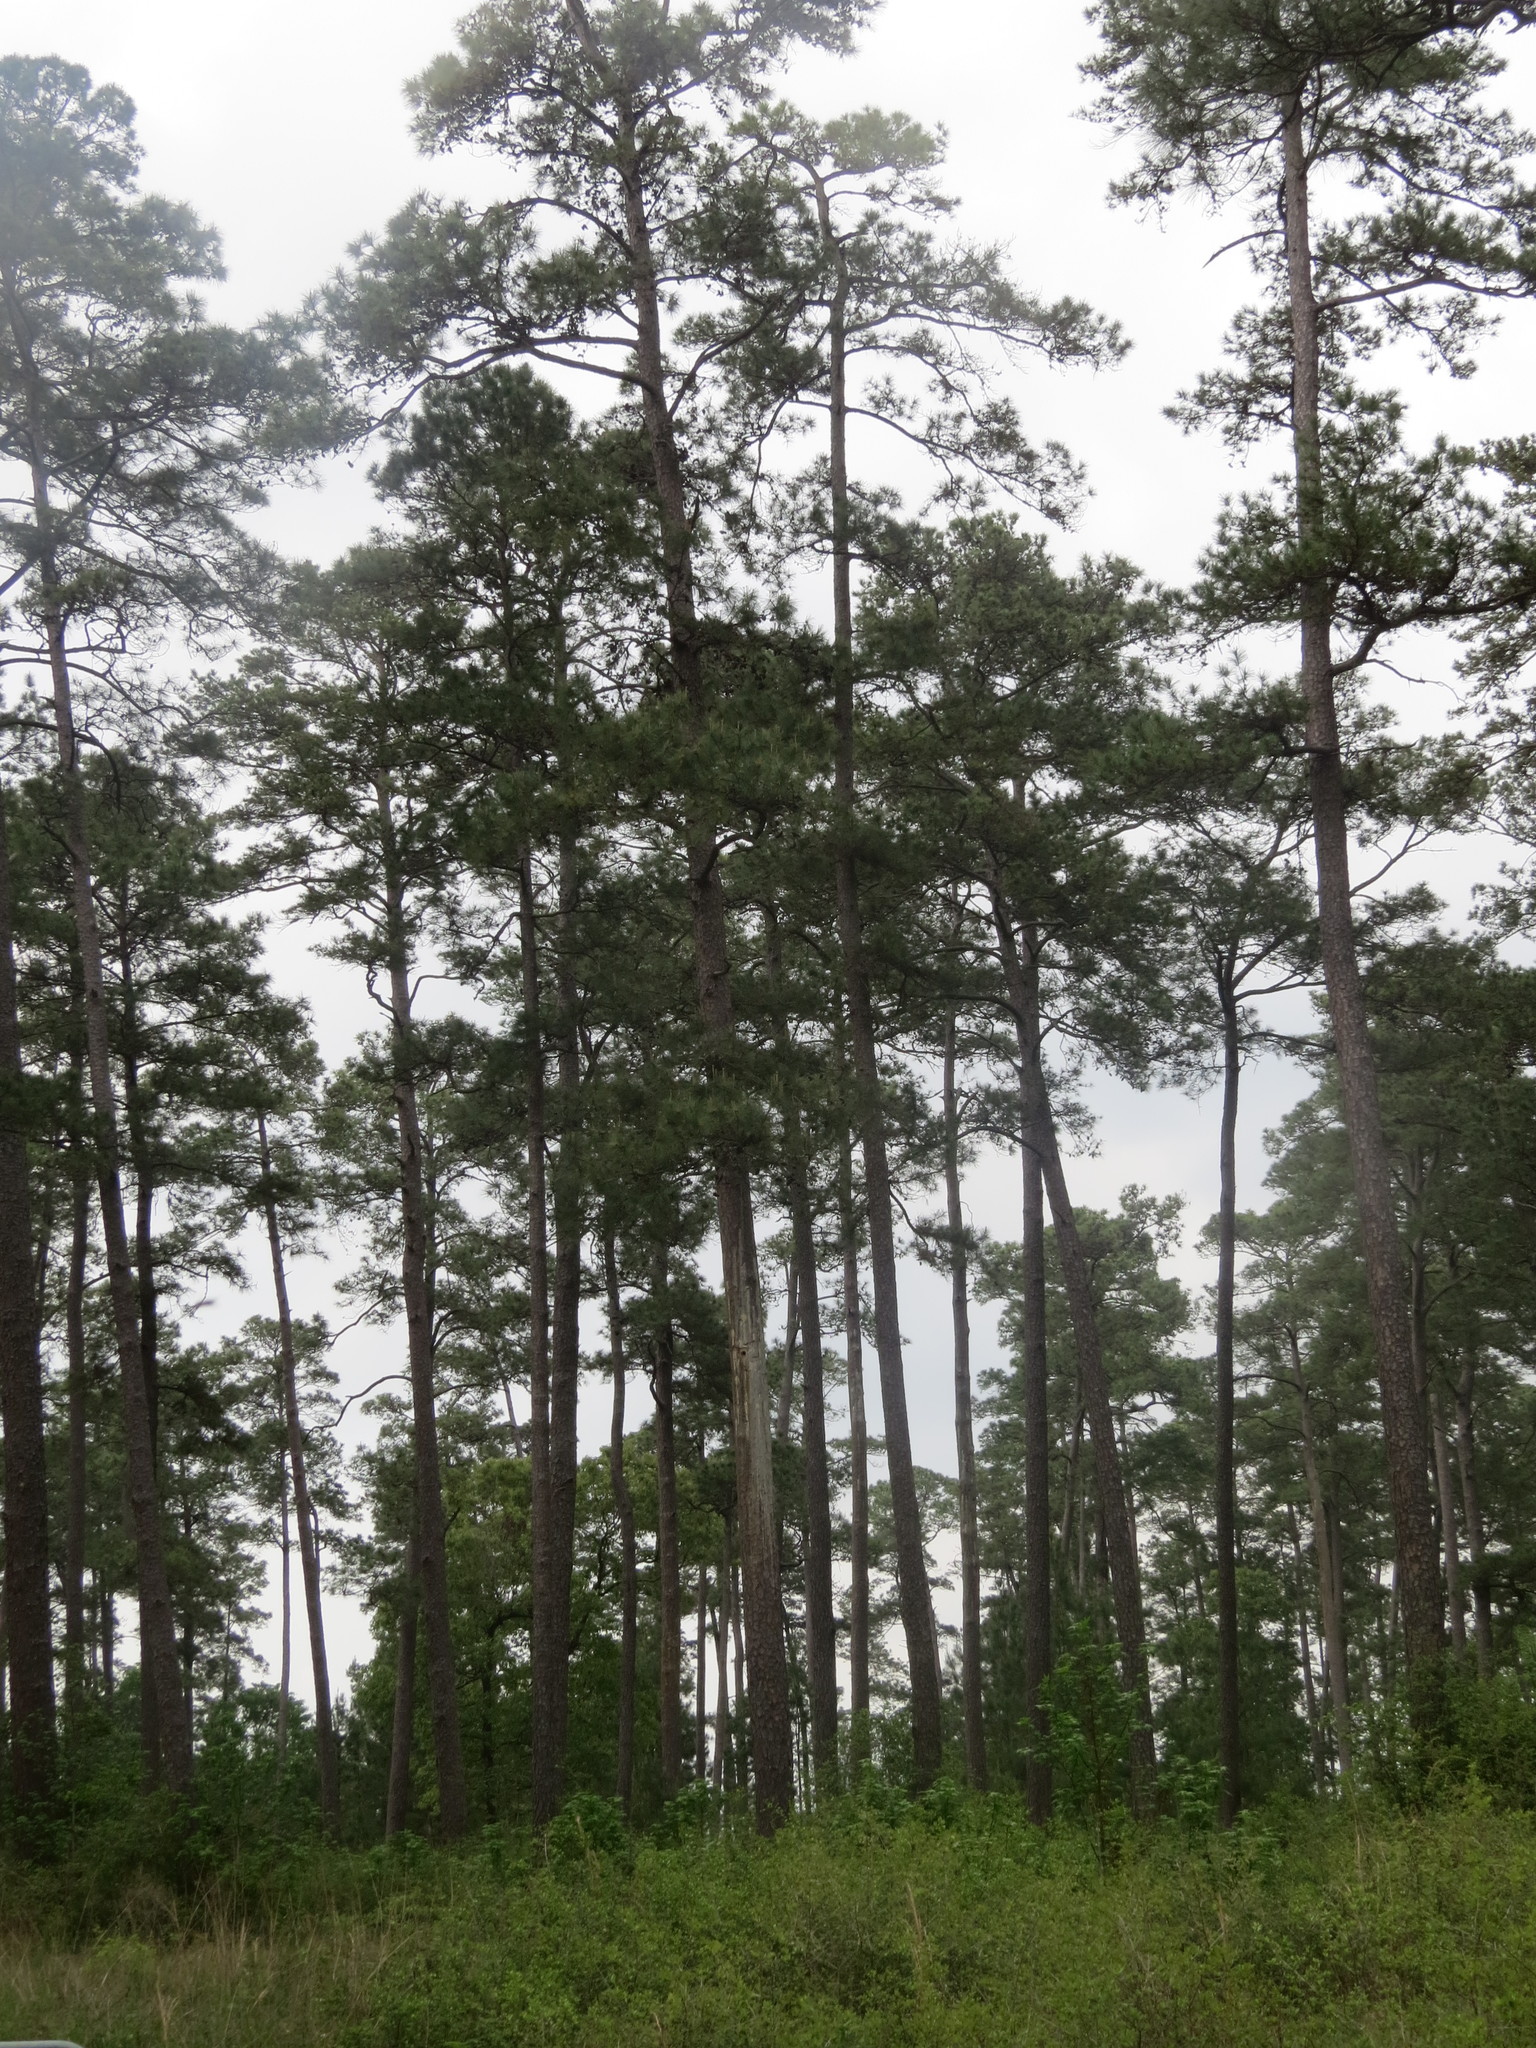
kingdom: Plantae
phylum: Tracheophyta
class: Pinopsida
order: Pinales
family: Pinaceae
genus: Pinus
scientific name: Pinus taeda
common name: Loblolly pine
